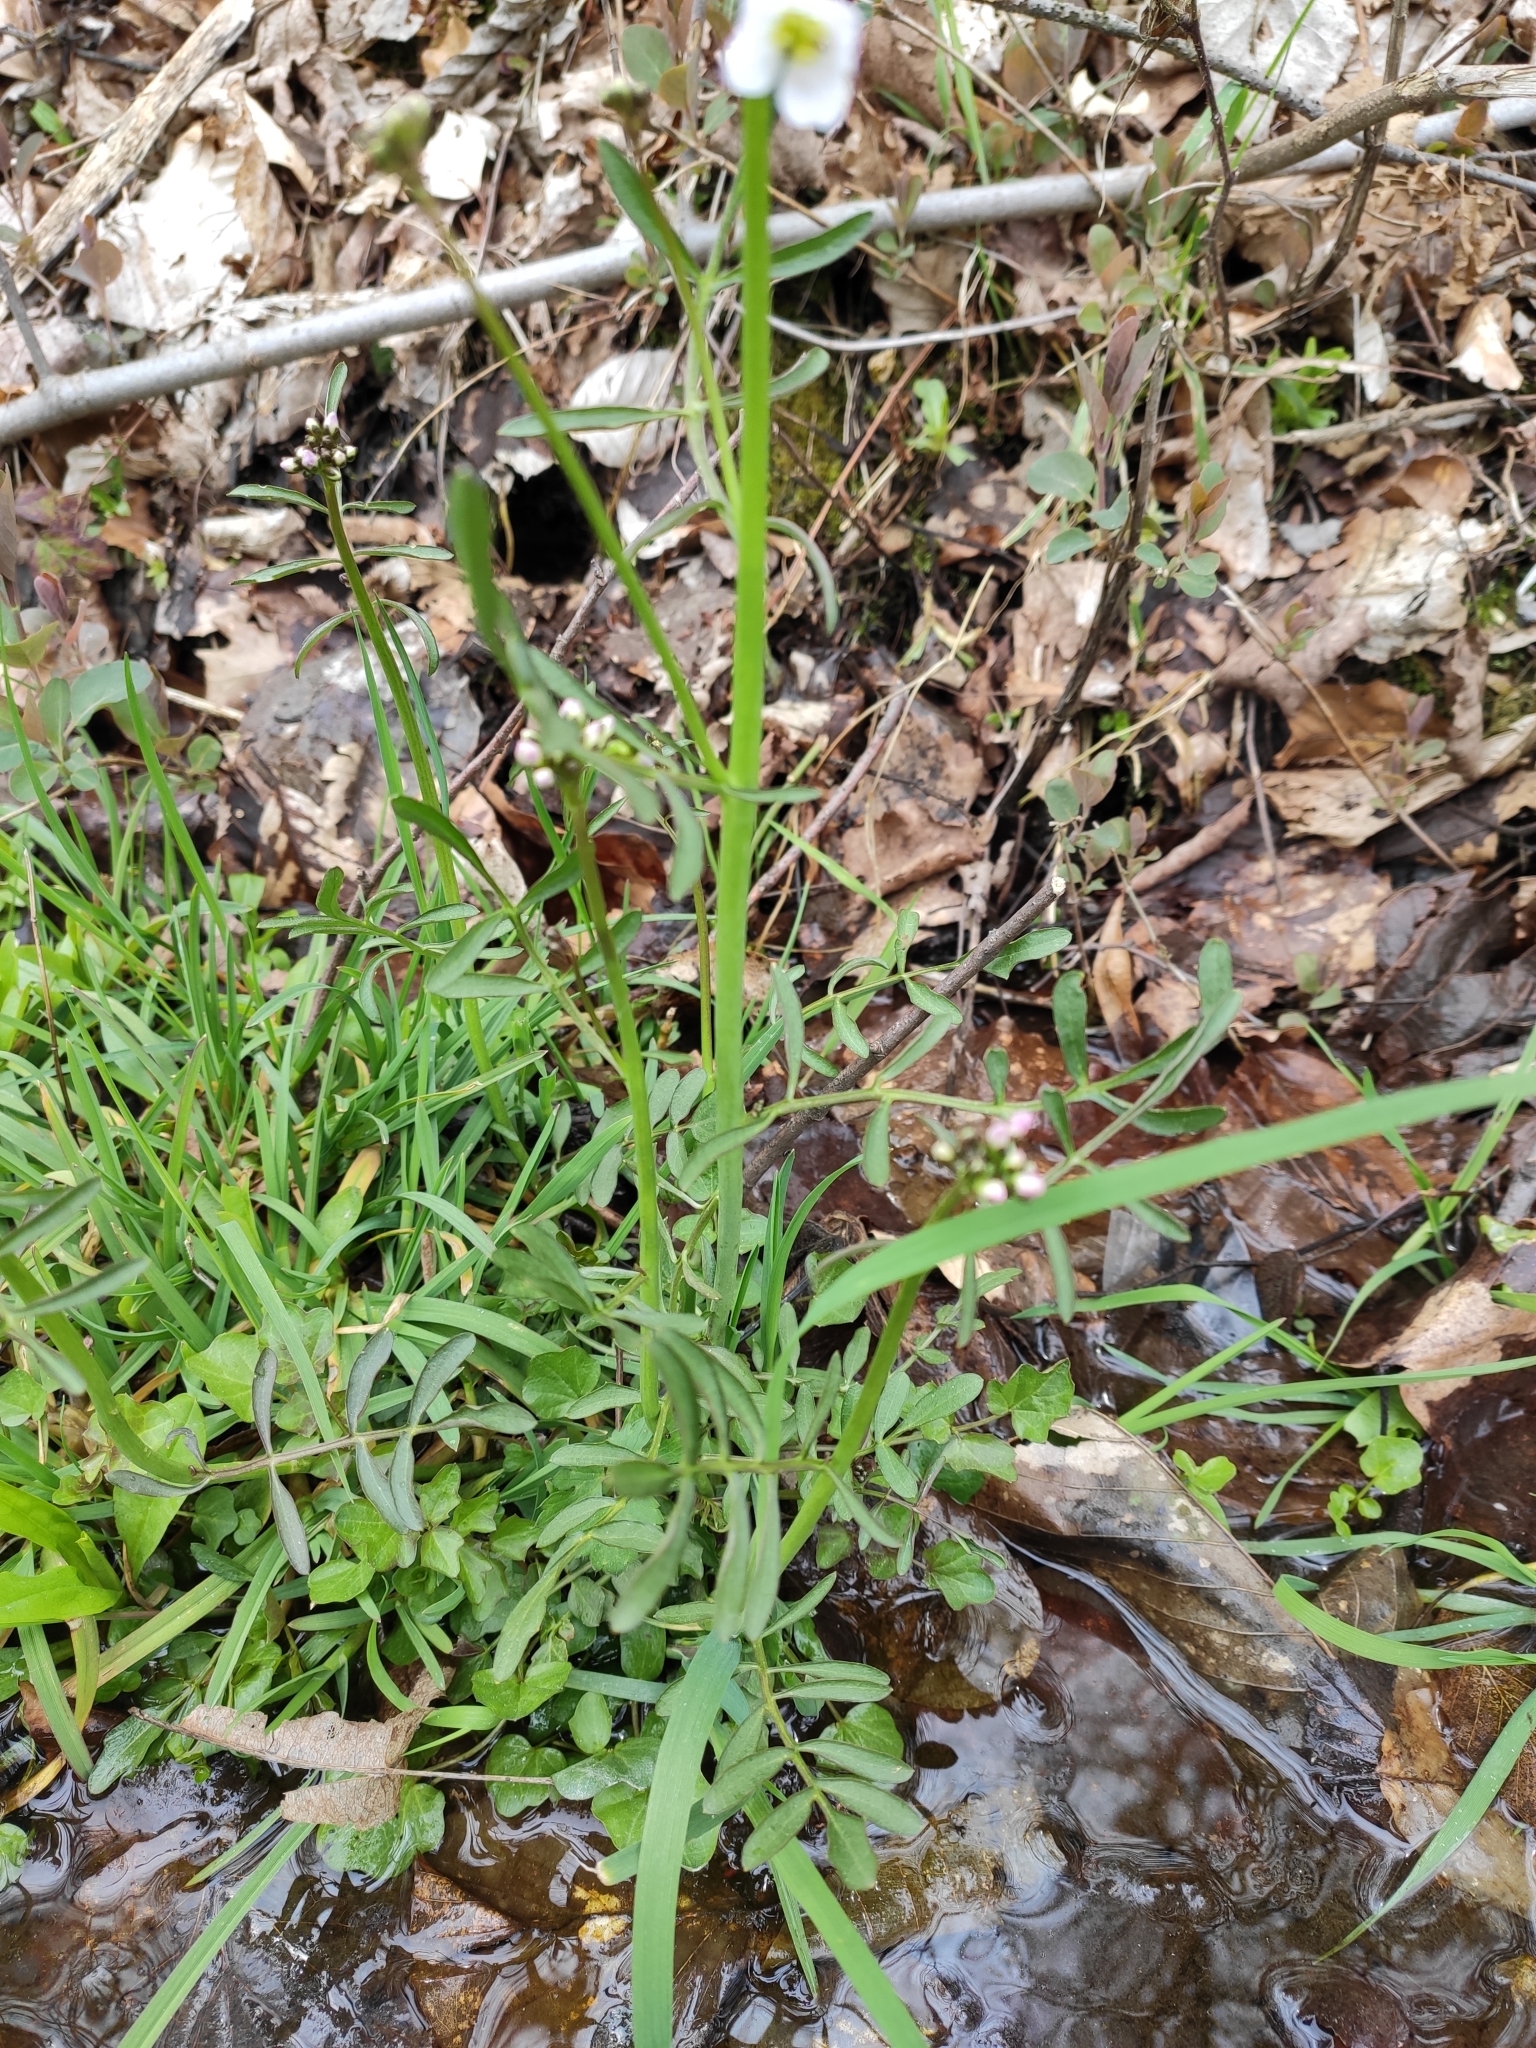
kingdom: Plantae
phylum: Tracheophyta
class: Magnoliopsida
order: Brassicales
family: Brassicaceae
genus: Cardamine
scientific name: Cardamine pratensis
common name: Cuckoo flower
